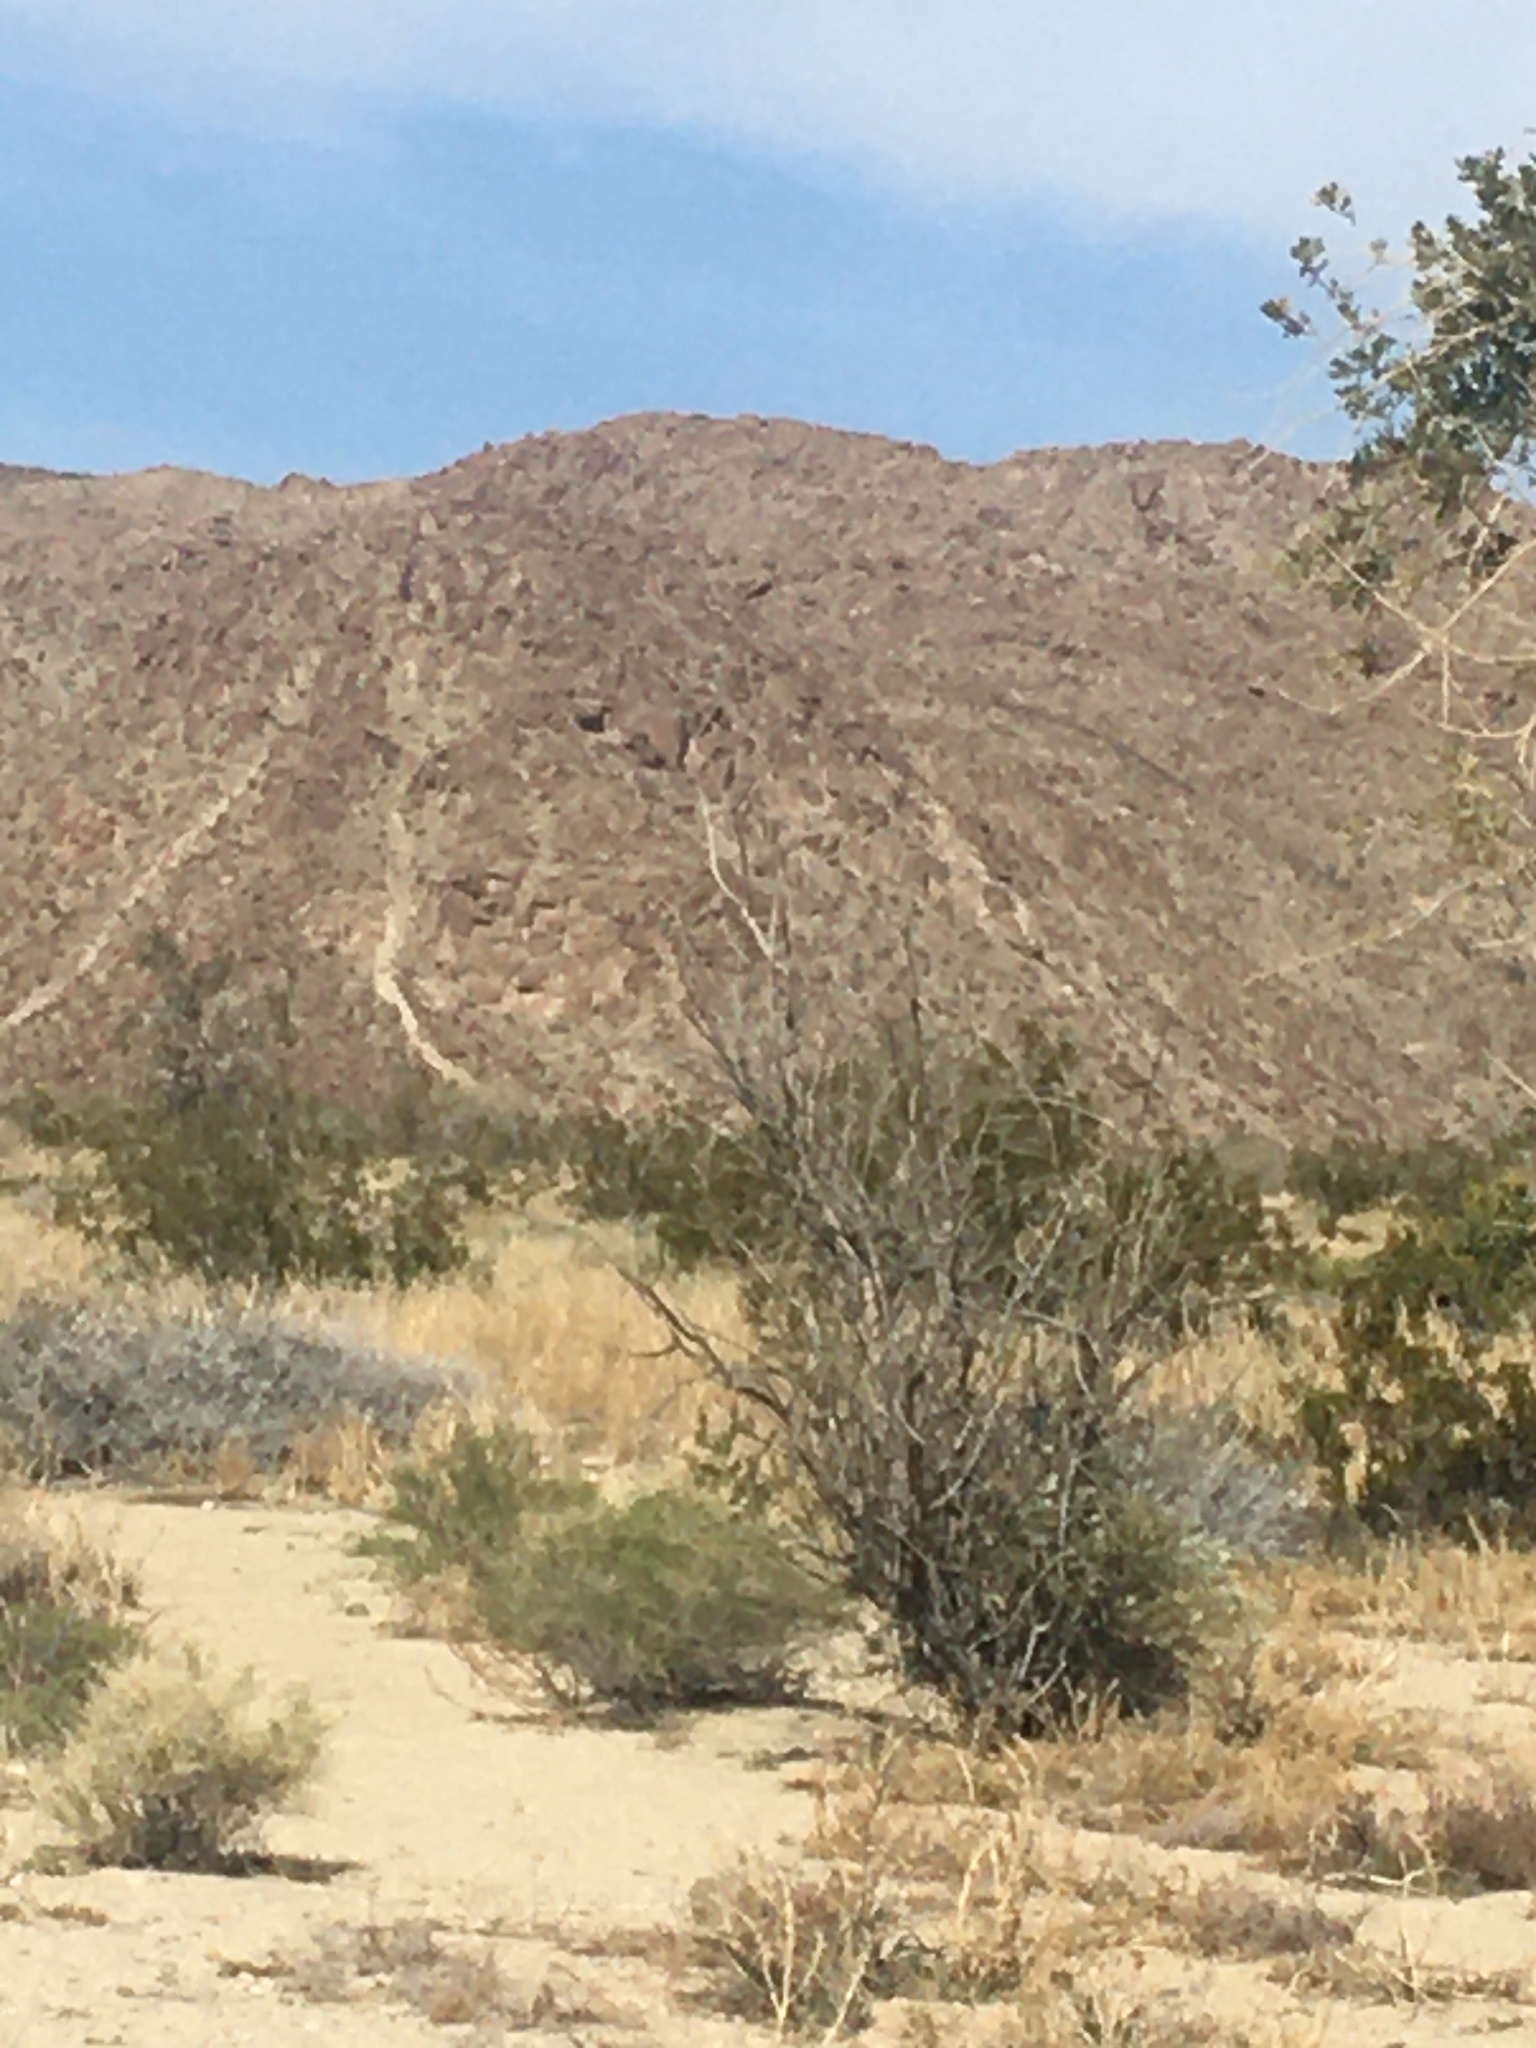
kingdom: Animalia
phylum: Chordata
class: Aves
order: Passeriformes
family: Passerellidae
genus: Amphispiza
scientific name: Amphispiza bilineata
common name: Black-throated sparrow
